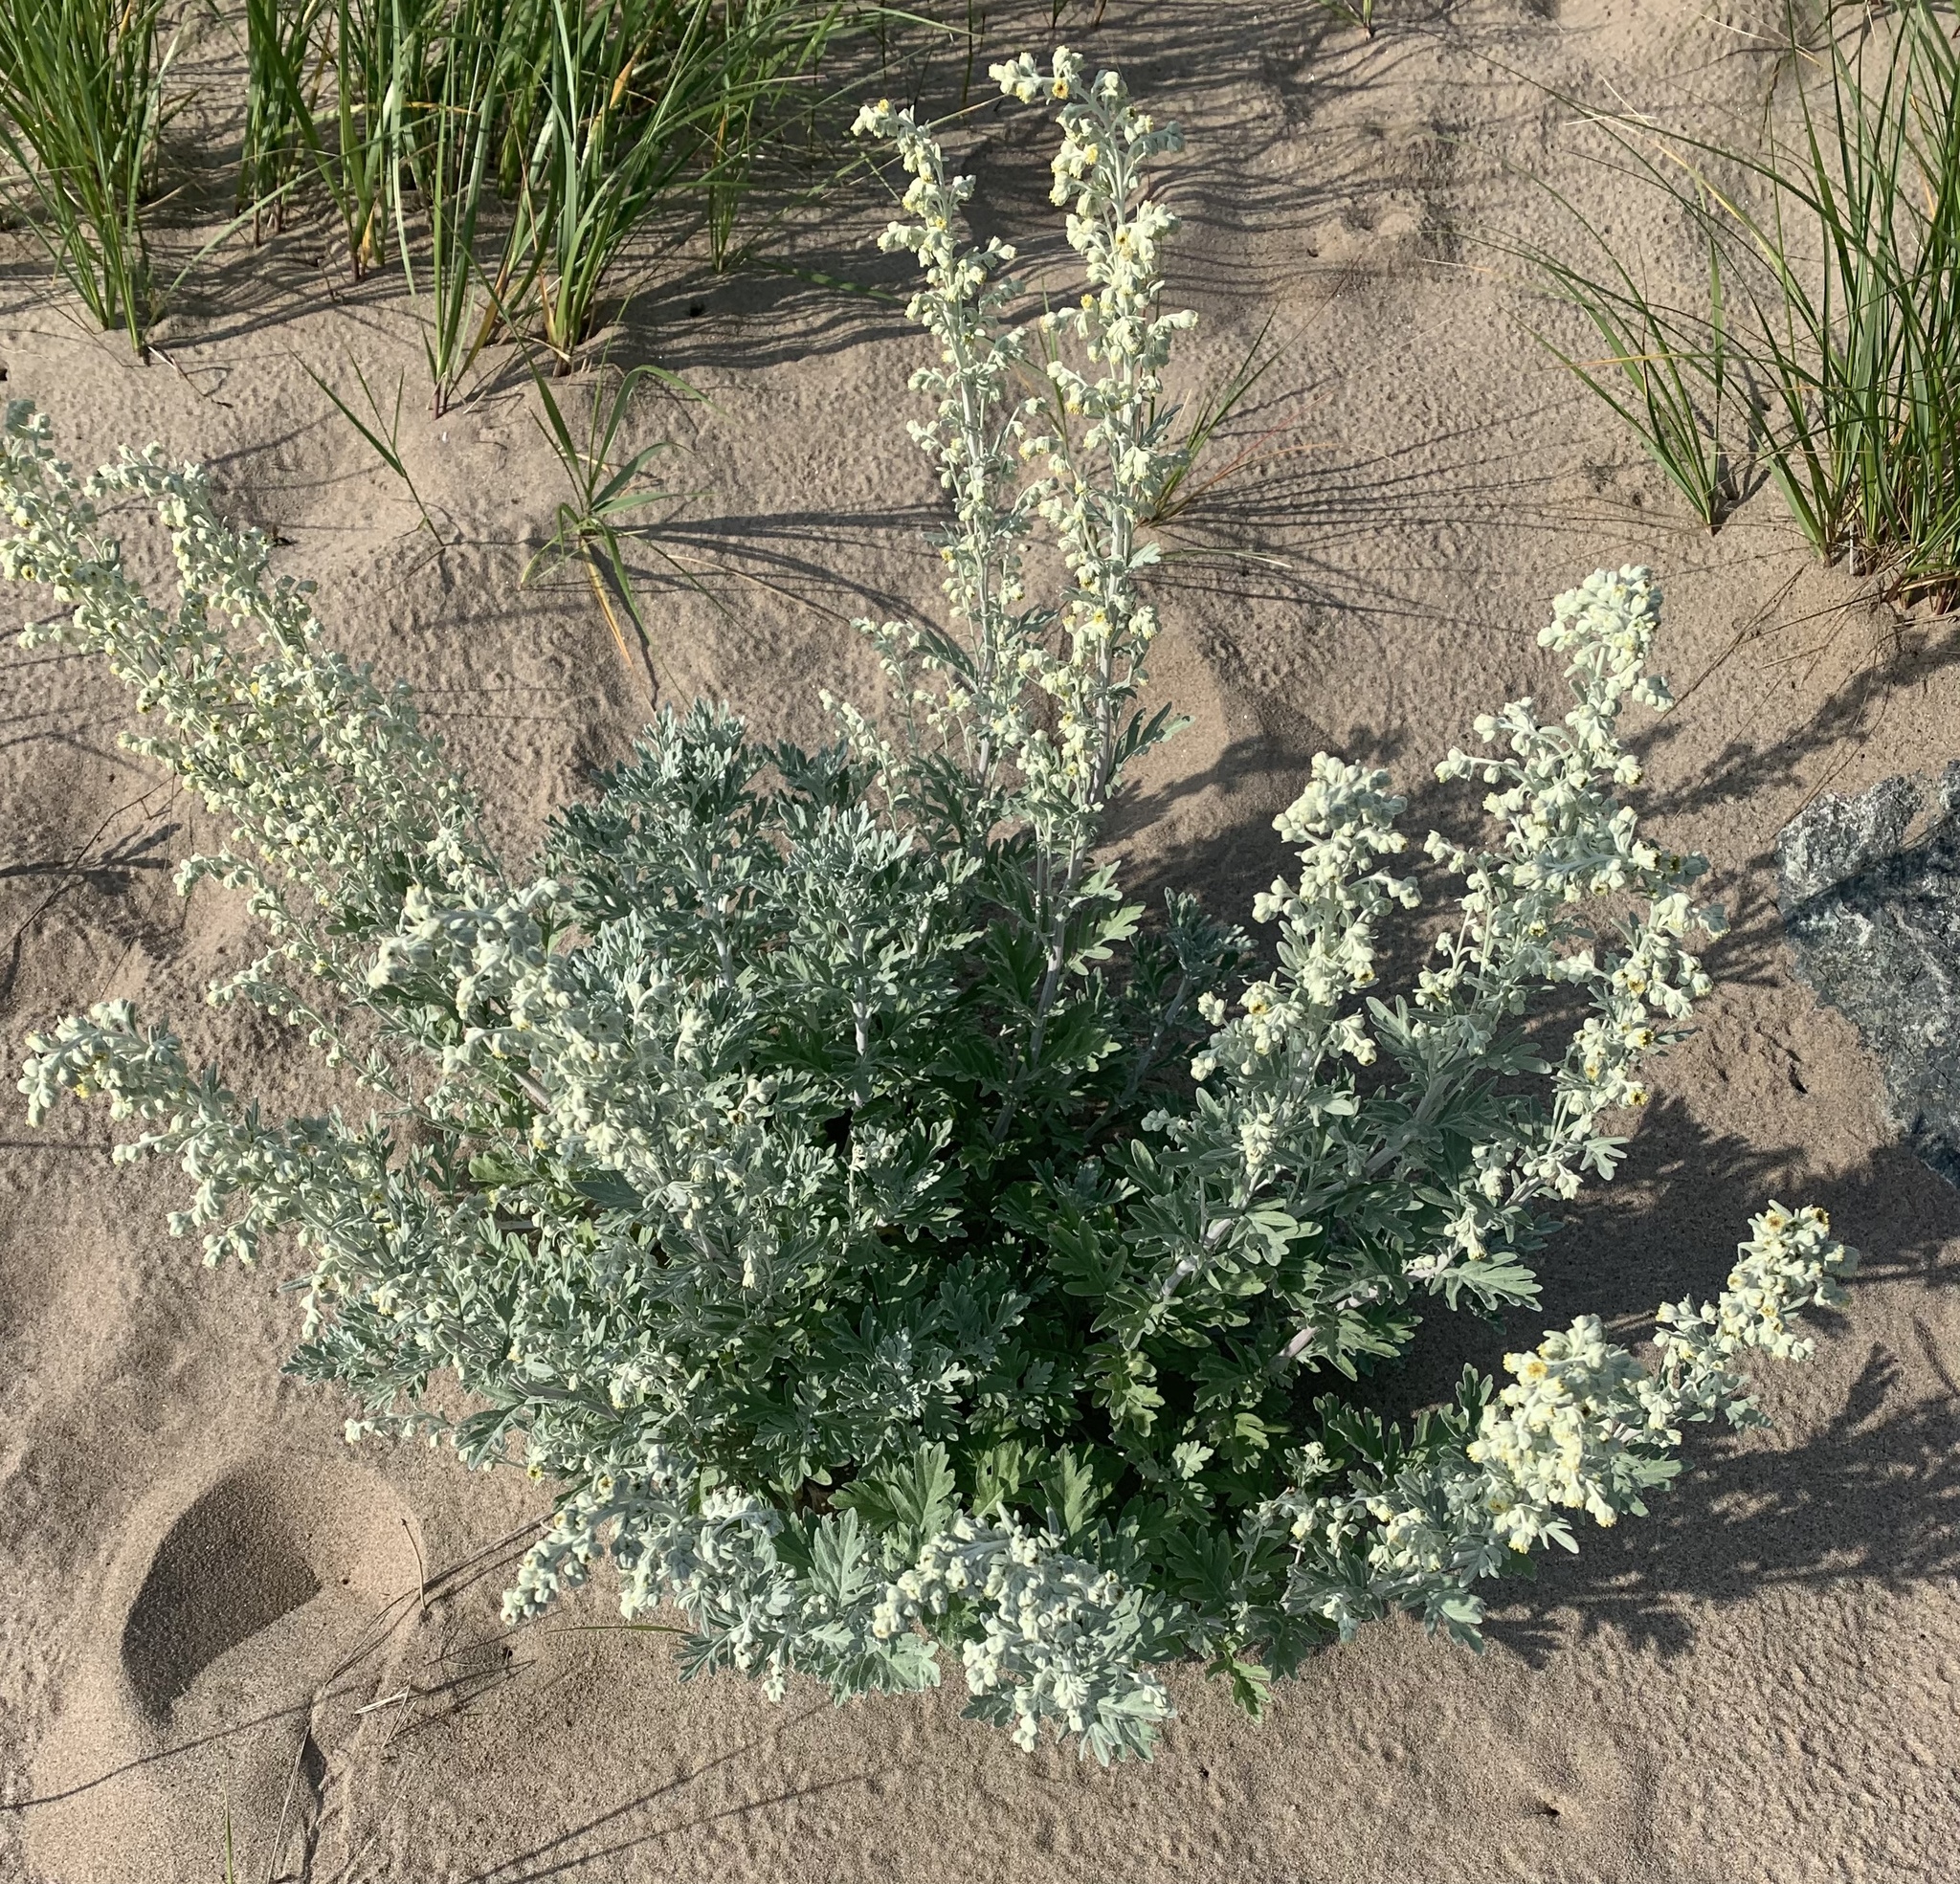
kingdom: Plantae
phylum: Tracheophyta
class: Magnoliopsida
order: Asterales
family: Asteraceae
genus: Artemisia
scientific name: Artemisia stelleriana
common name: Beach wormwood
